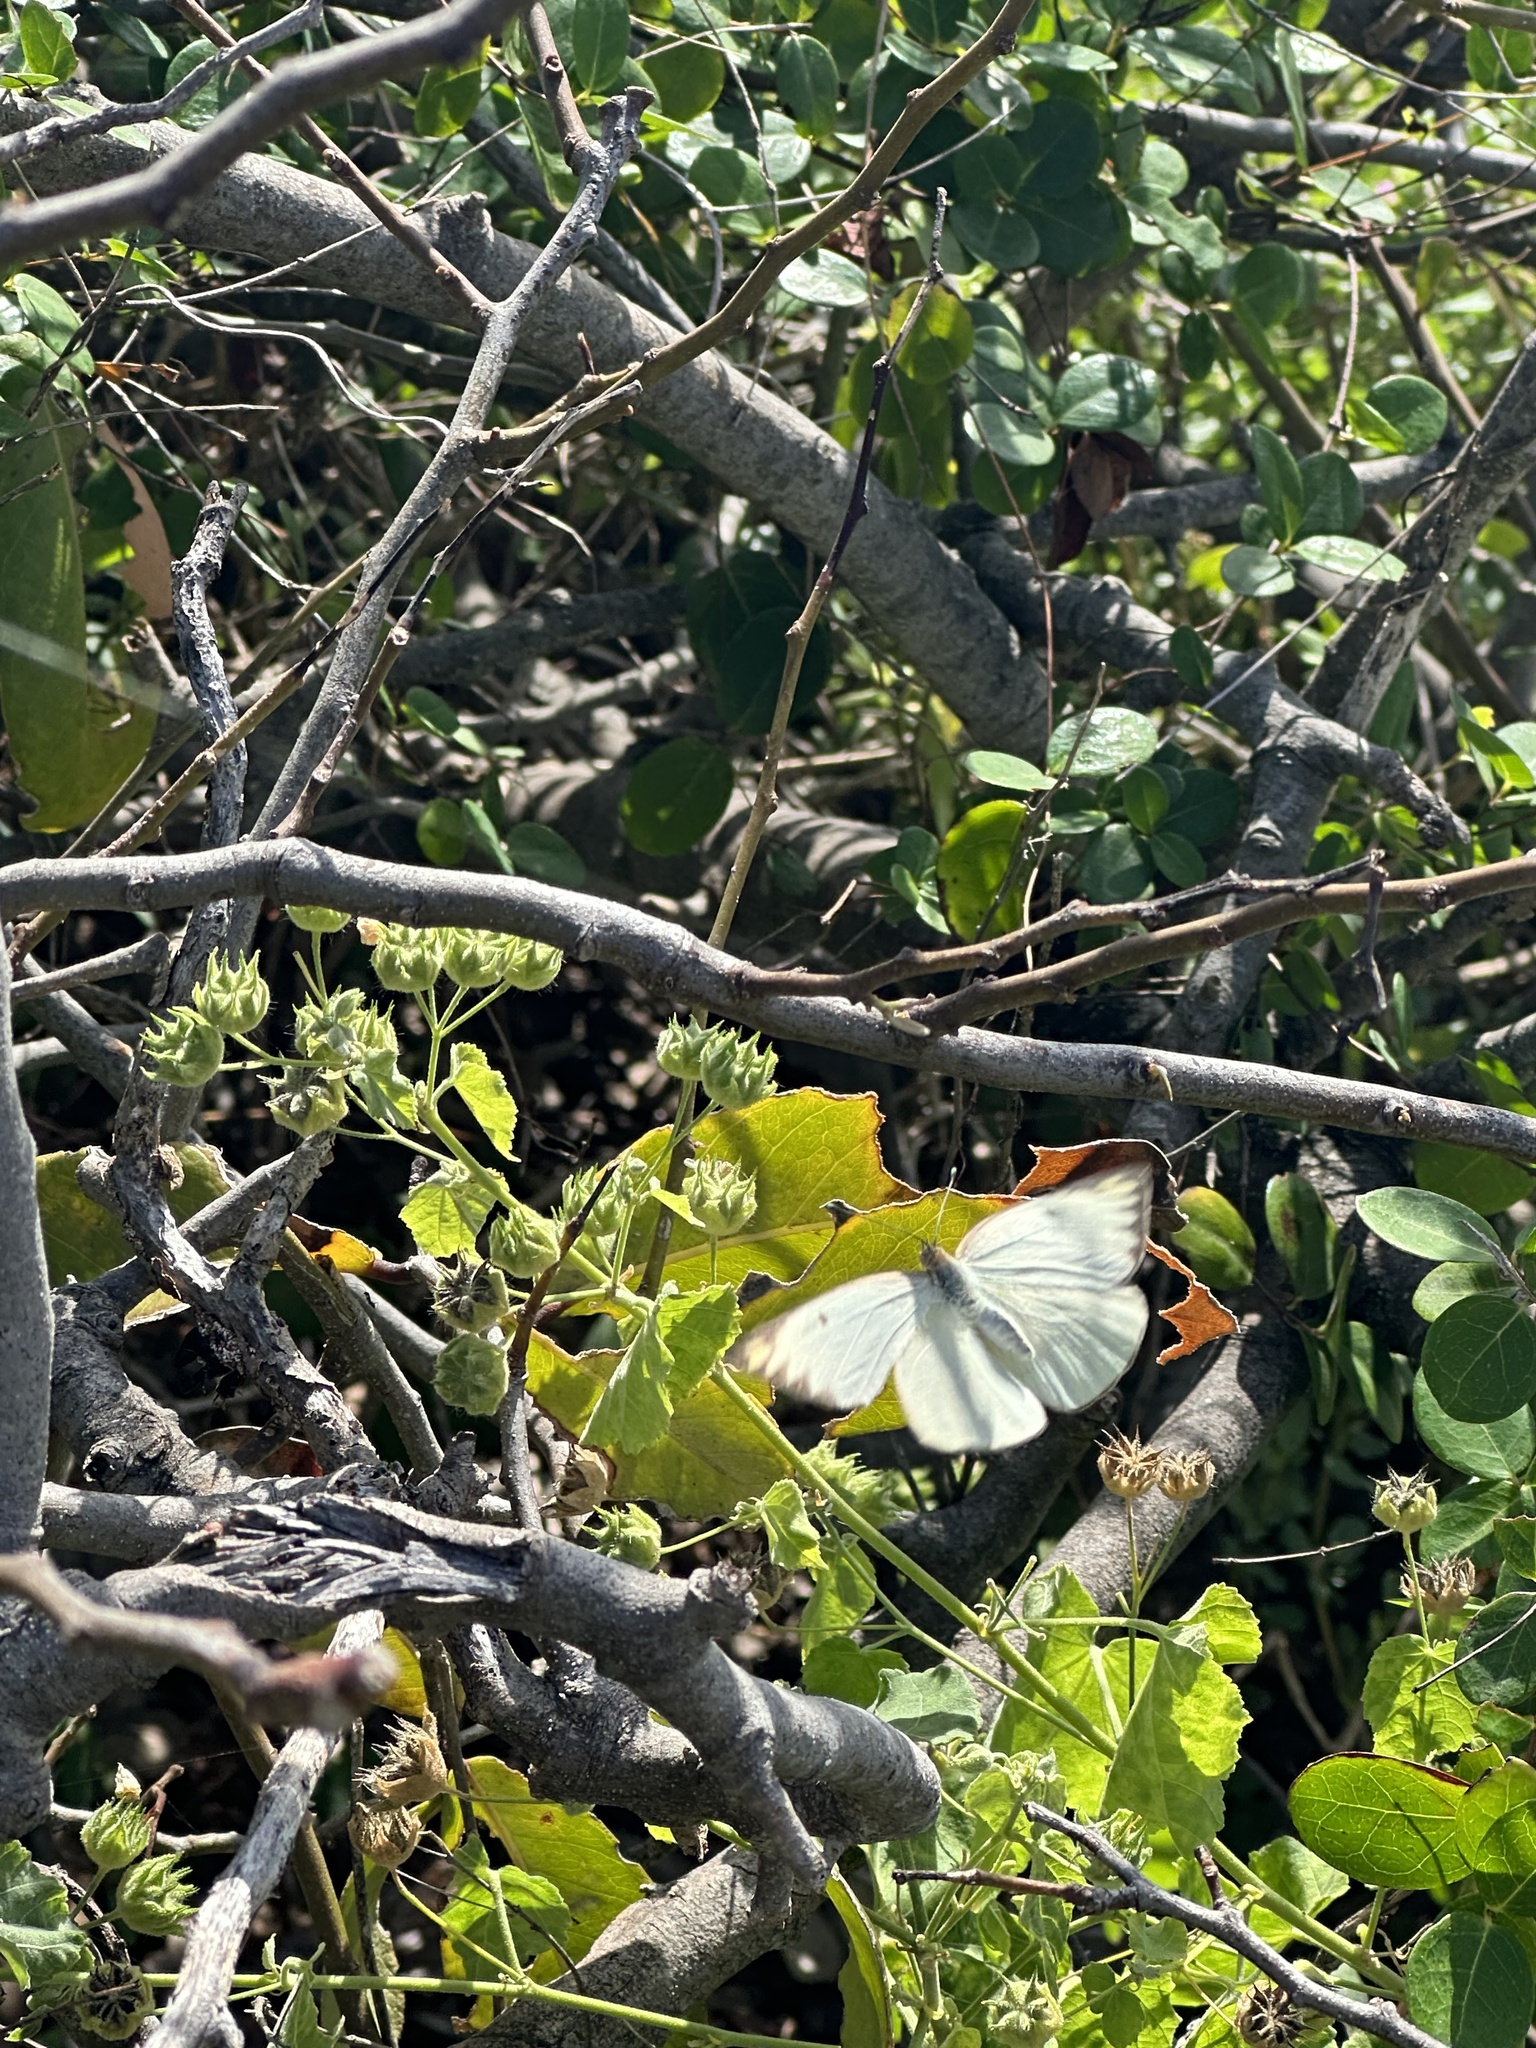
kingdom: Animalia
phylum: Arthropoda
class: Insecta
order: Lepidoptera
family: Pieridae
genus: Ascia
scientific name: Ascia monuste
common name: Great southern white
